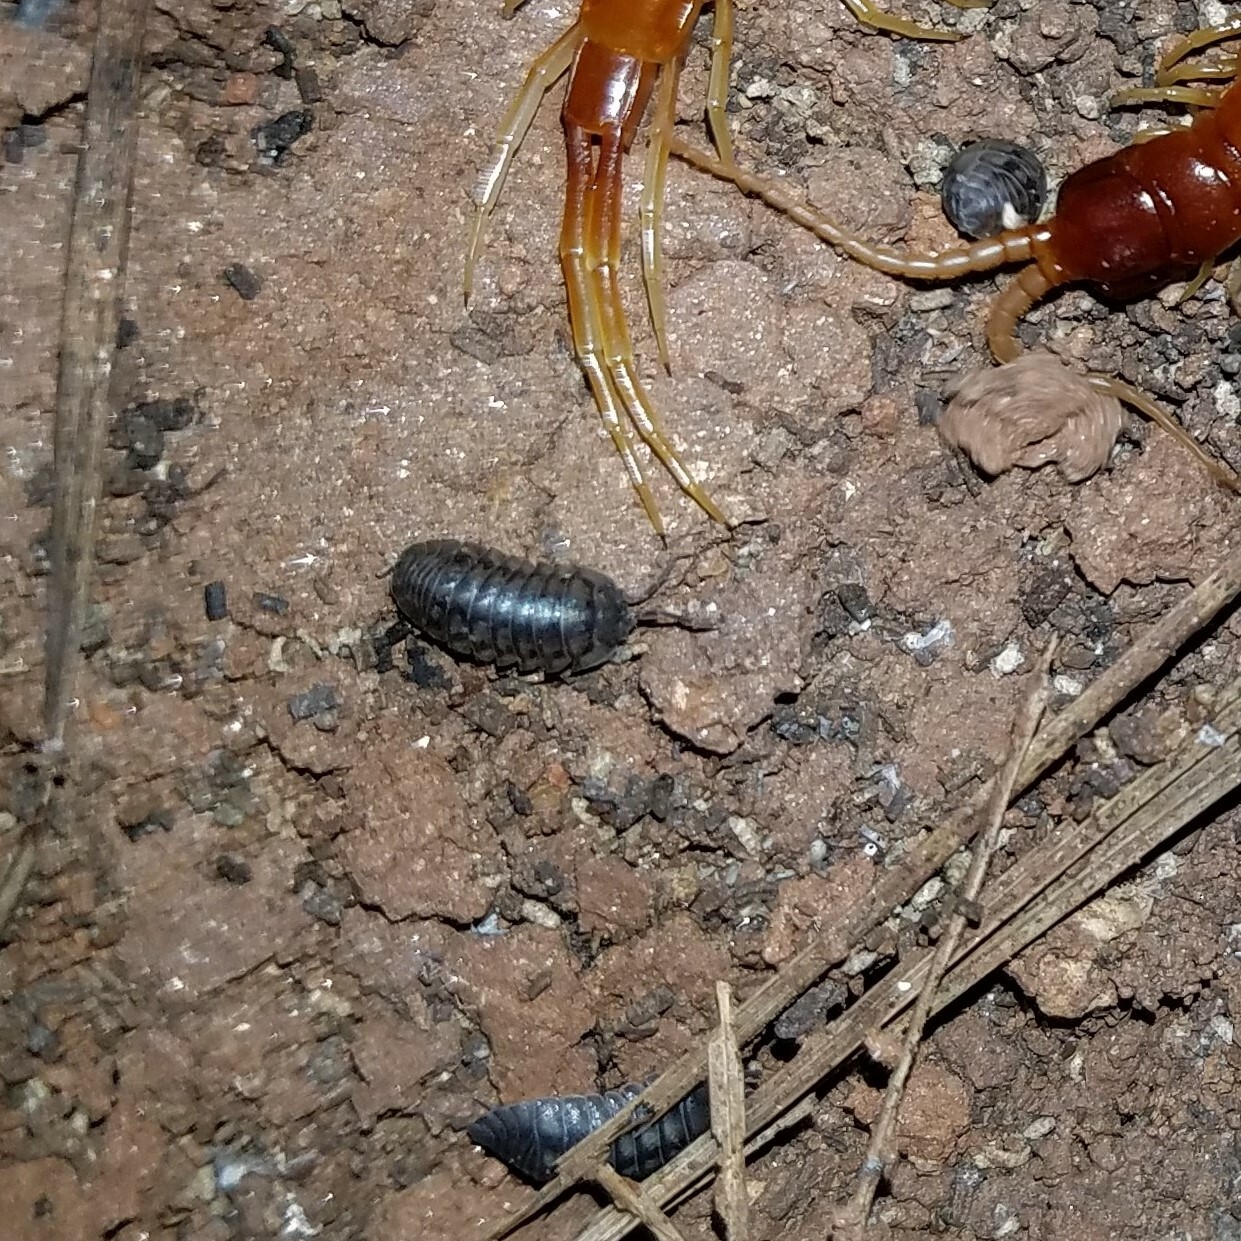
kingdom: Animalia
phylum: Arthropoda
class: Malacostraca
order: Isopoda
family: Armadillidiidae
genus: Armadillidium
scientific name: Armadillidium nasatum
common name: Isopod
